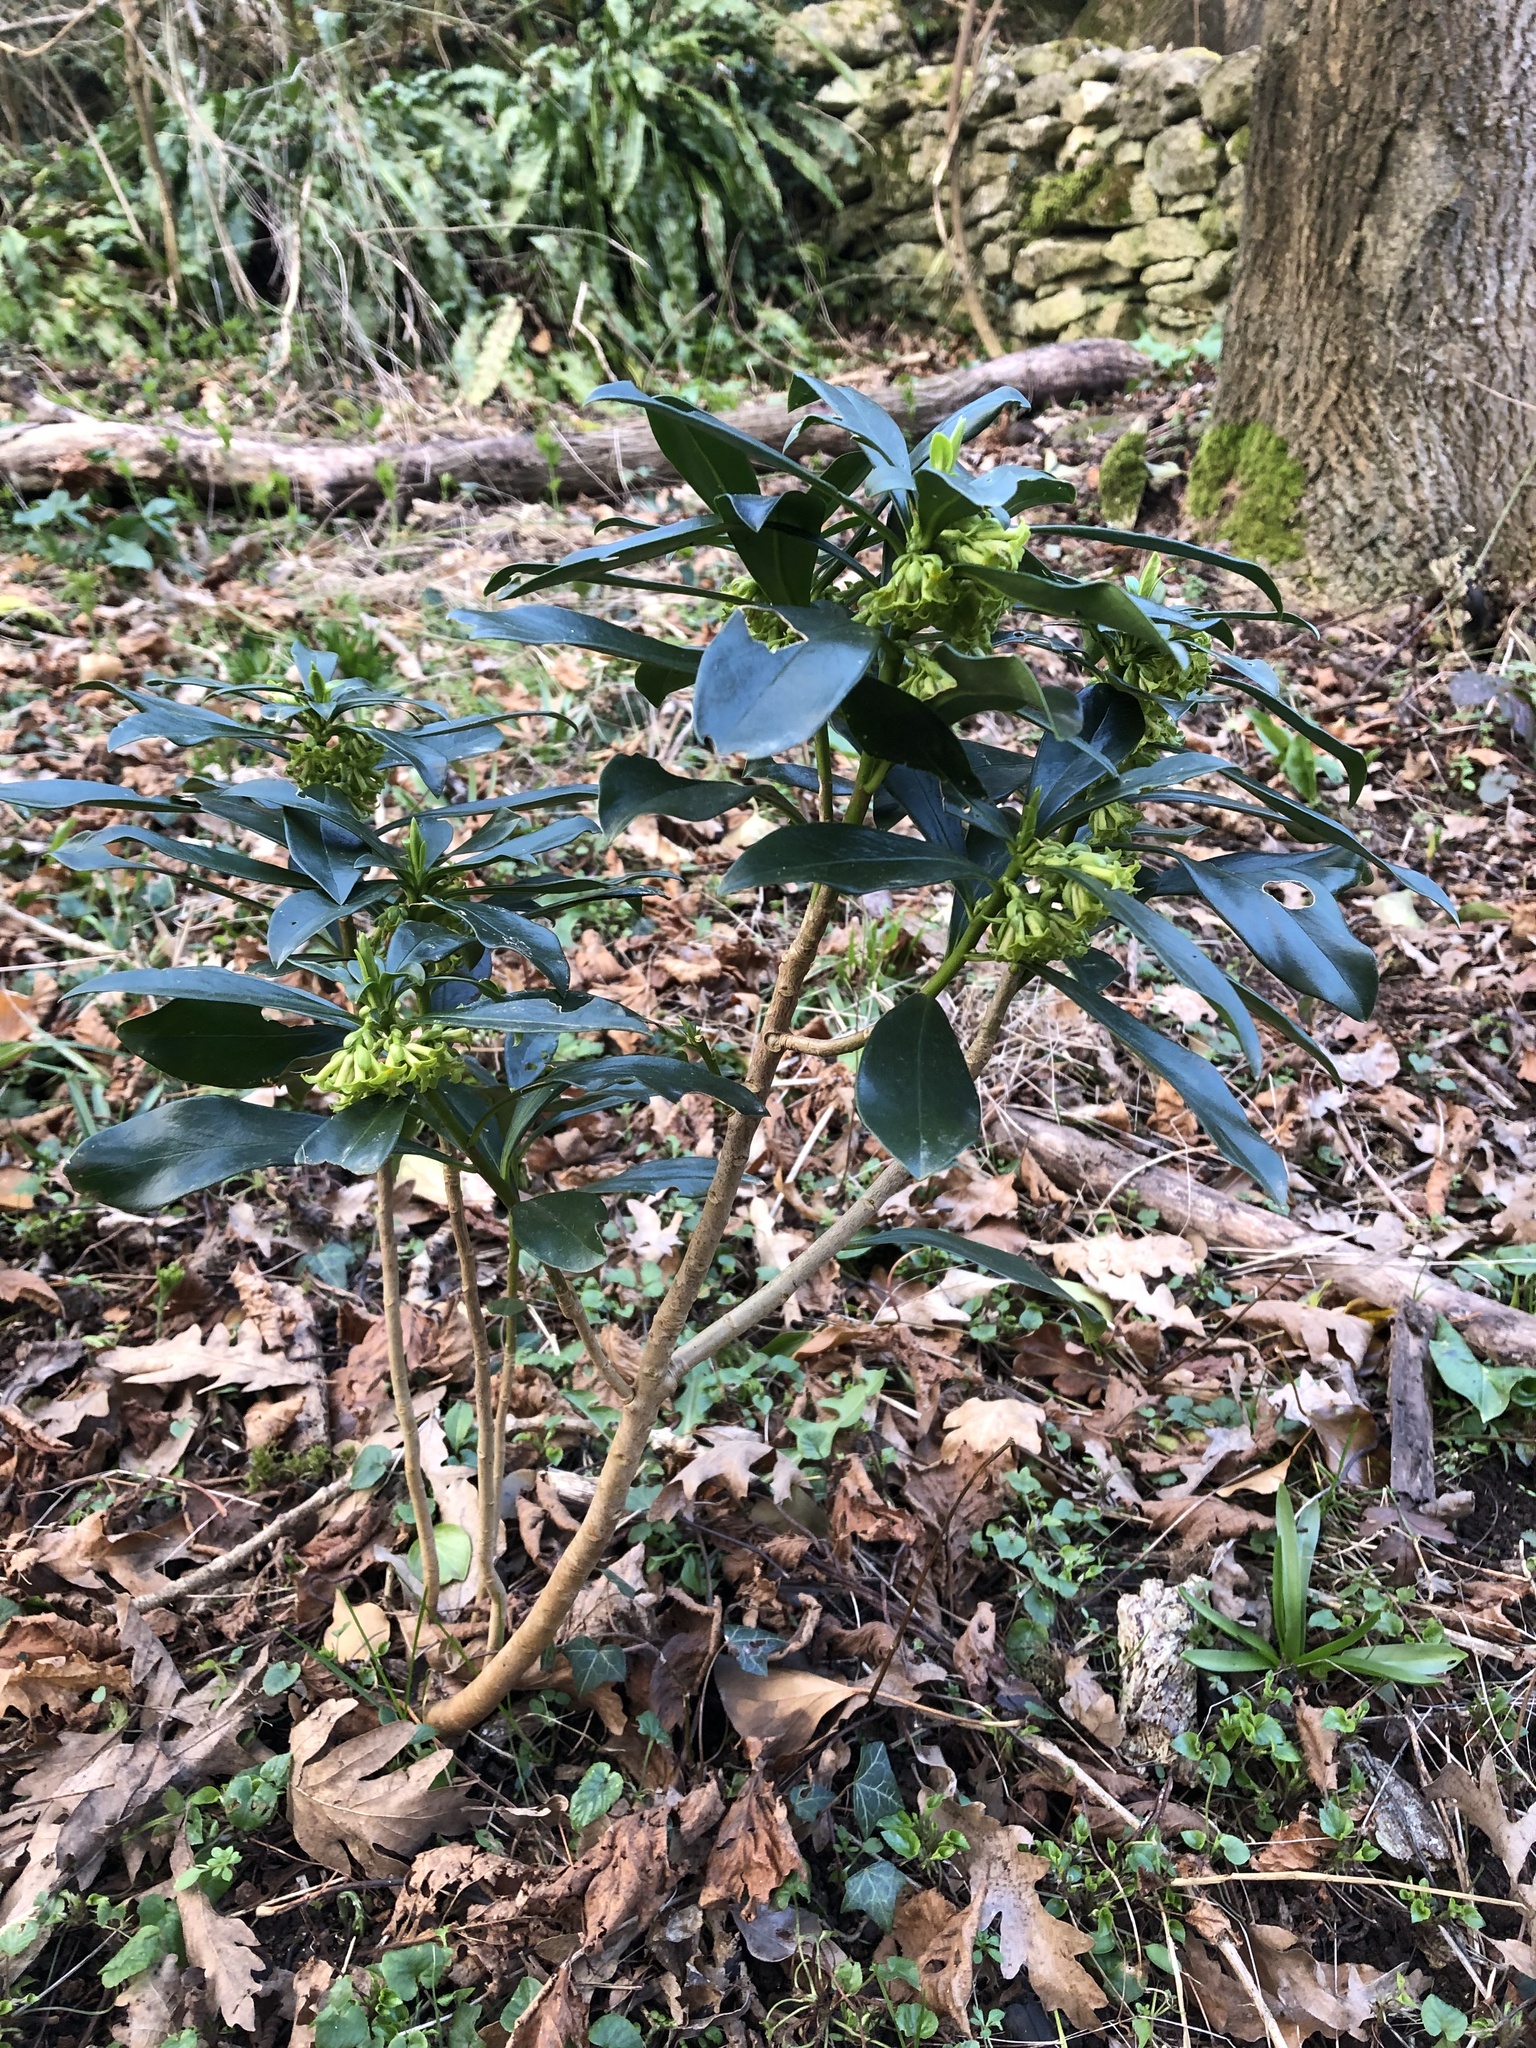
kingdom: Plantae
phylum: Tracheophyta
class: Magnoliopsida
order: Malvales
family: Thymelaeaceae
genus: Daphne
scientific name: Daphne laureola
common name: Spurge-laurel
